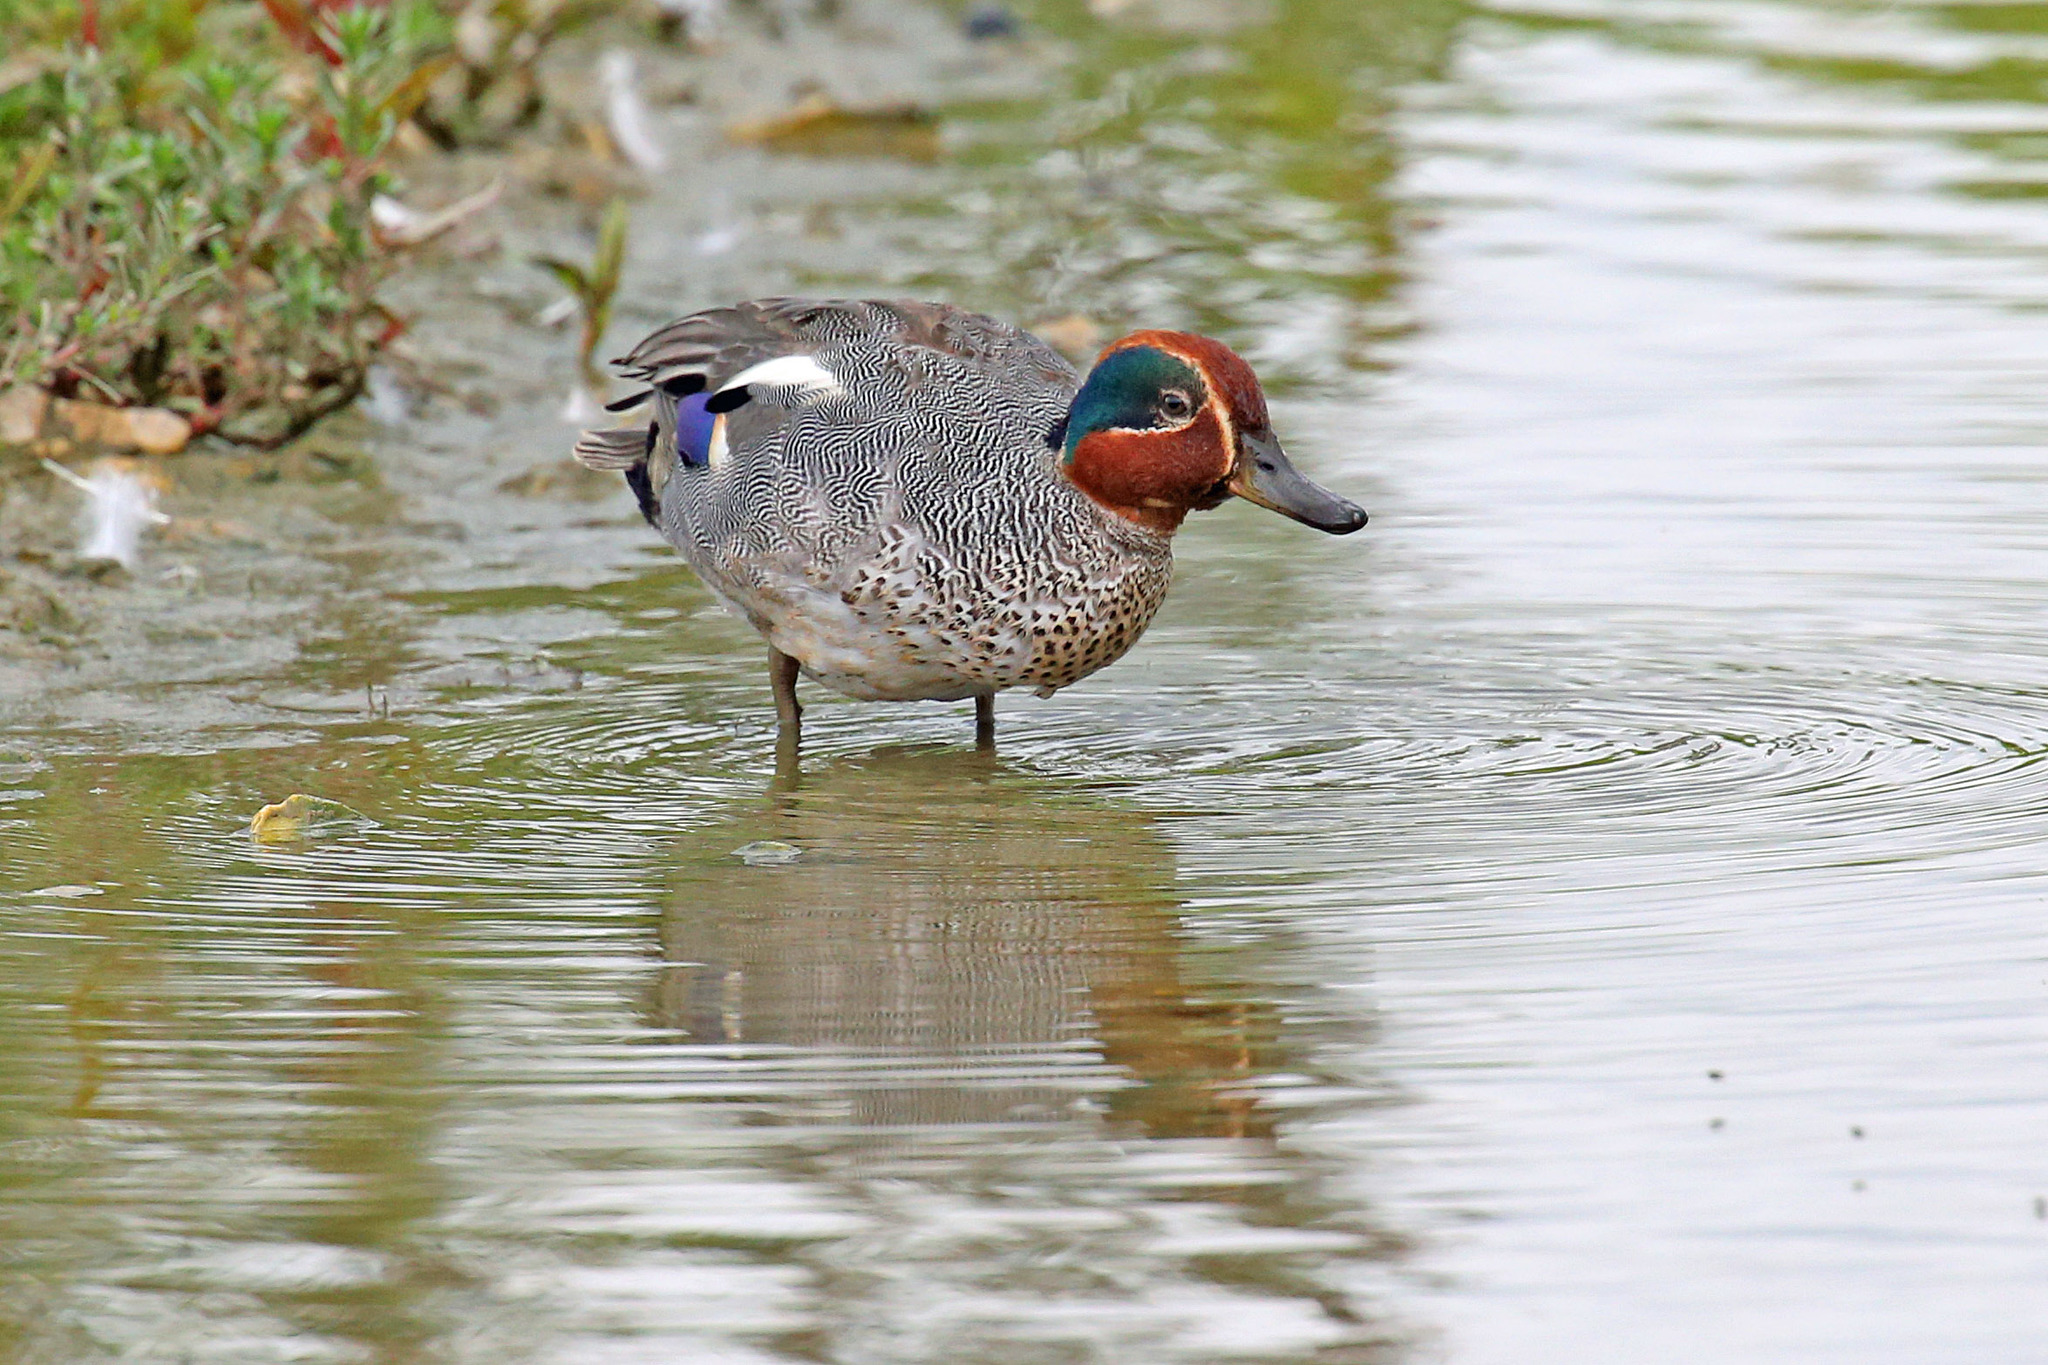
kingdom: Animalia
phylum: Chordata
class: Aves
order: Anseriformes
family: Anatidae
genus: Anas
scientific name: Anas crecca
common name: Eurasian teal
